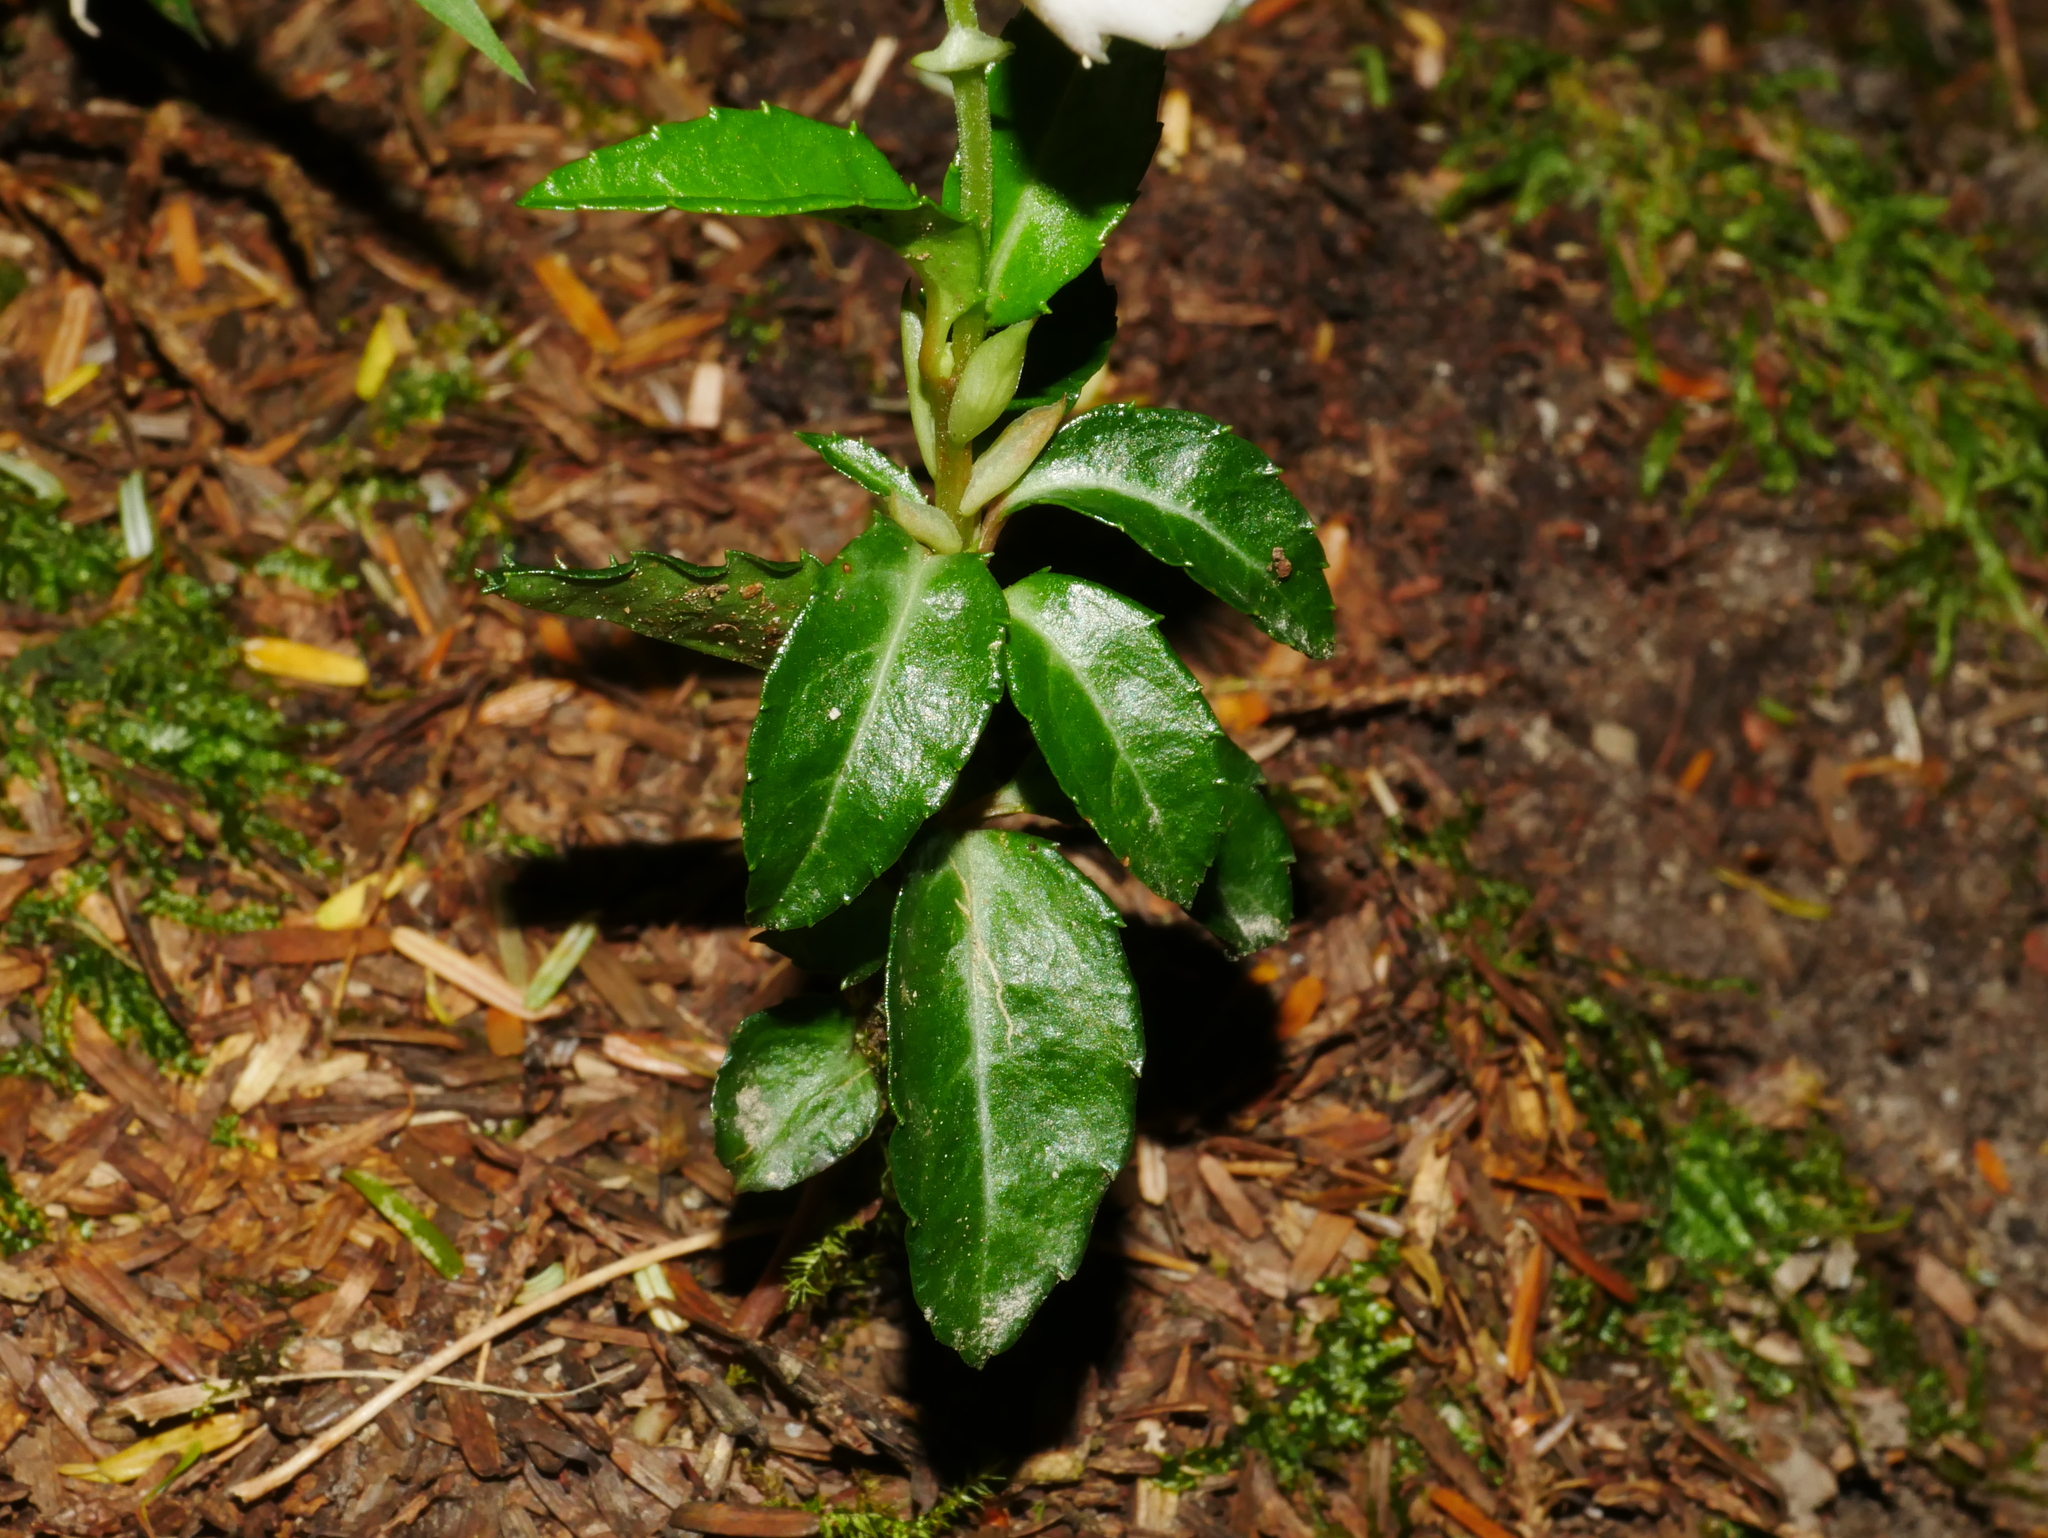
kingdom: Plantae
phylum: Tracheophyta
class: Magnoliopsida
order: Ericales
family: Ericaceae
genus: Chimaphila
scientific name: Chimaphila japonica
